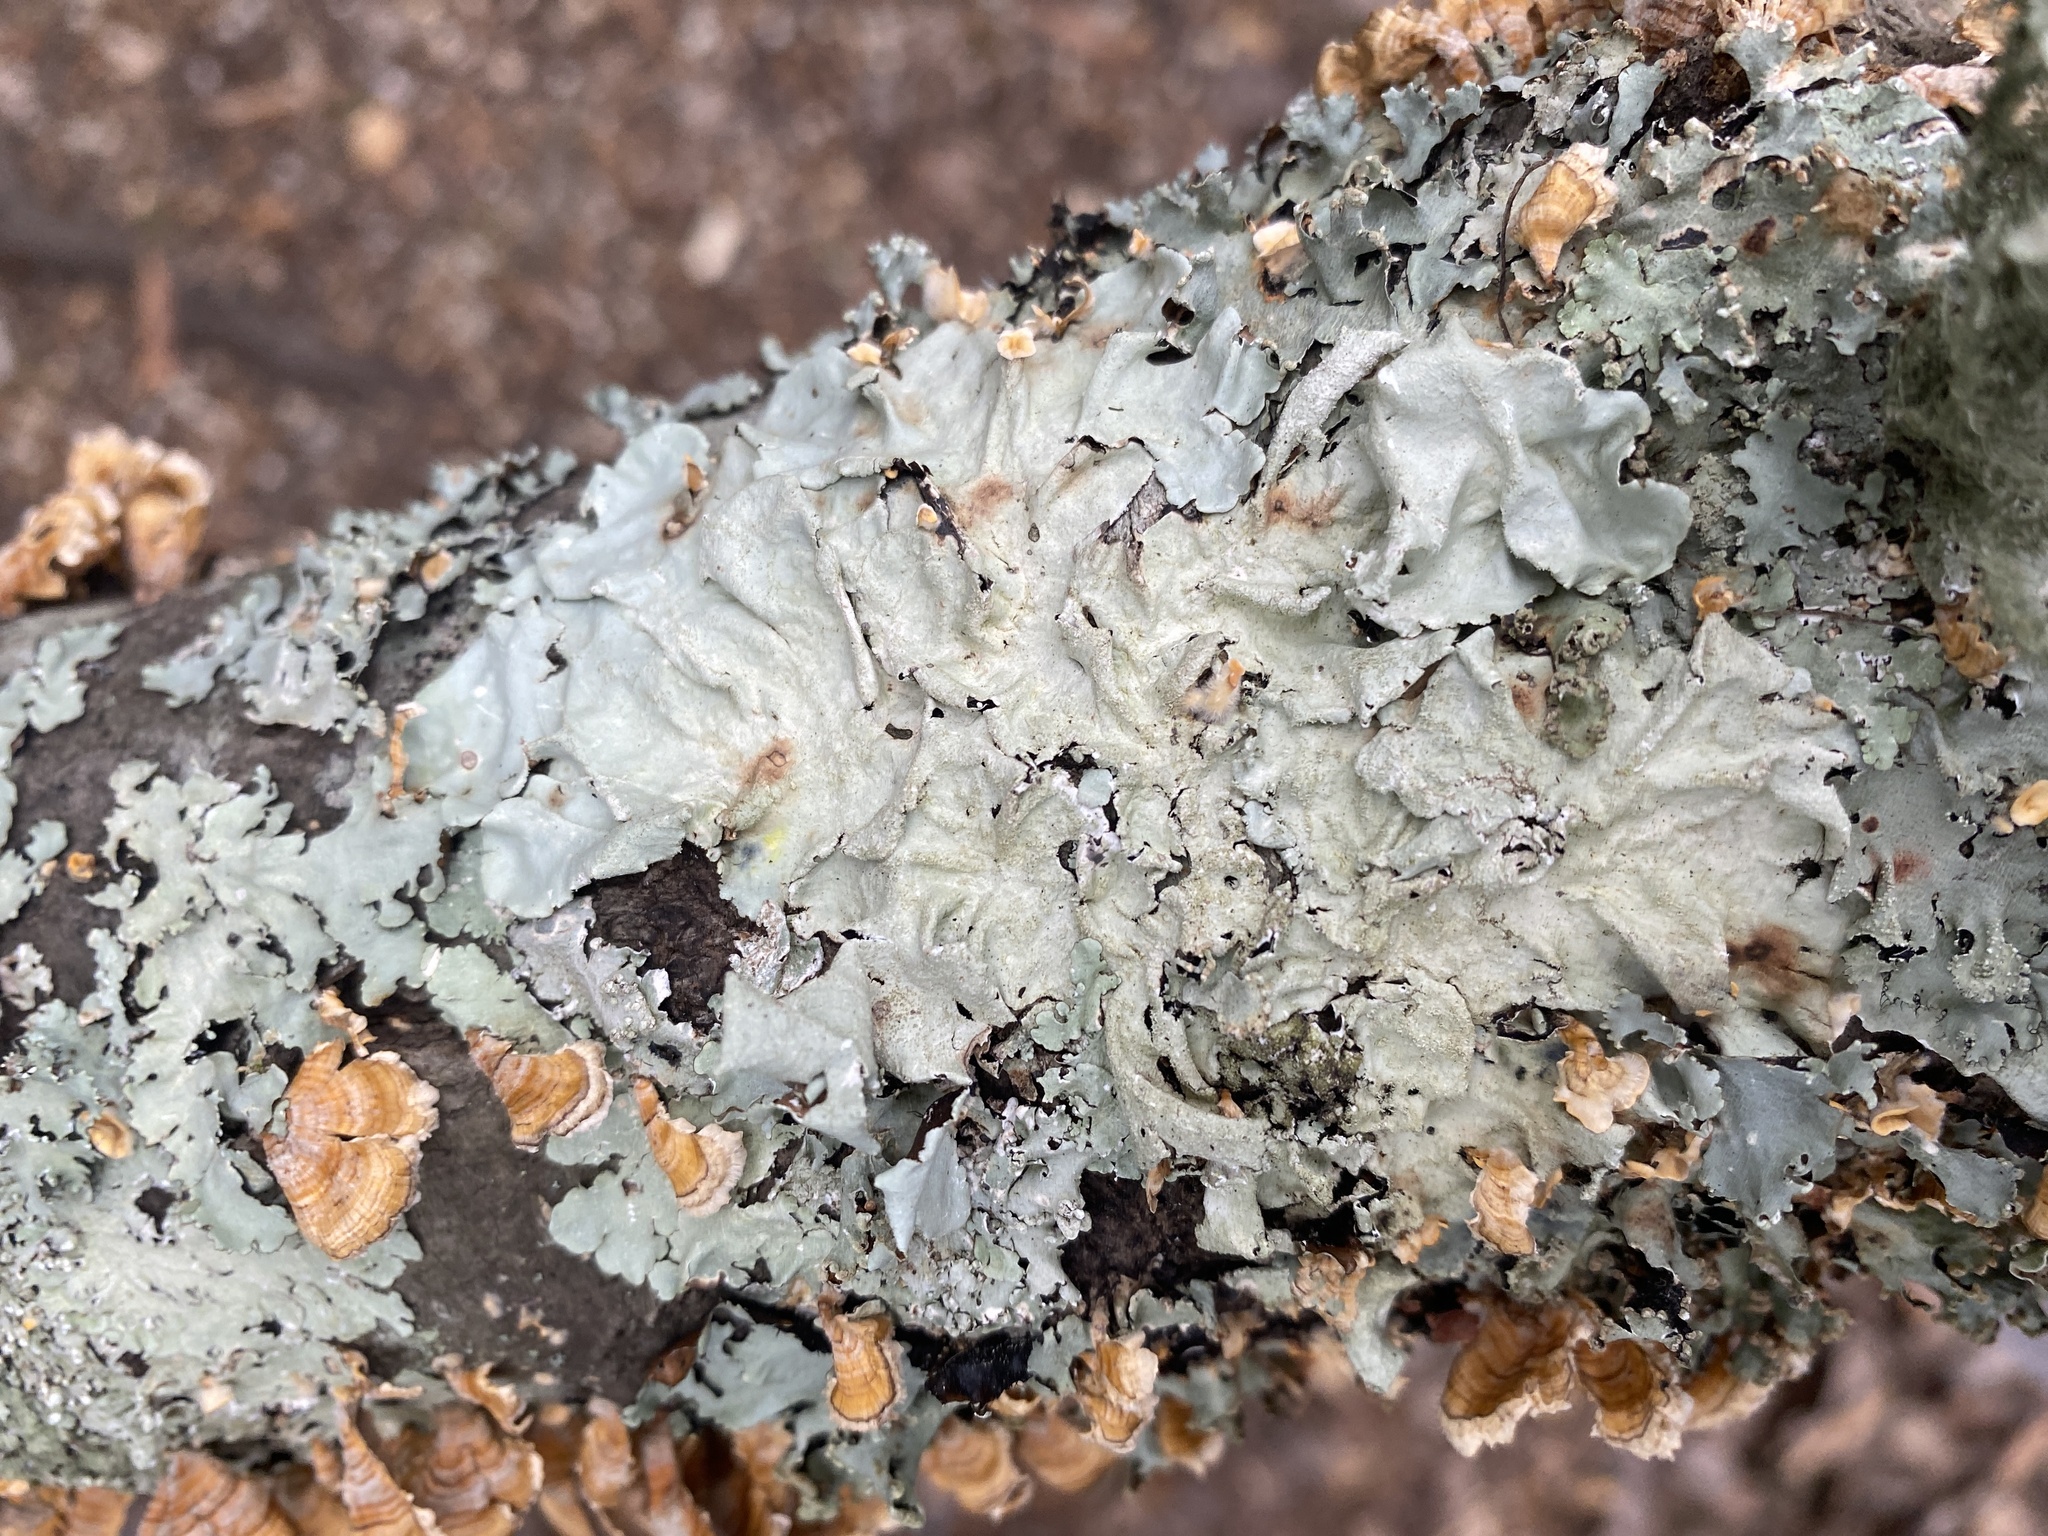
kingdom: Fungi
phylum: Ascomycota
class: Lecanoromycetes
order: Lecanorales
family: Parmeliaceae
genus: Parmotrema
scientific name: Parmotrema tinctorum
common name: Old gray ruffles
